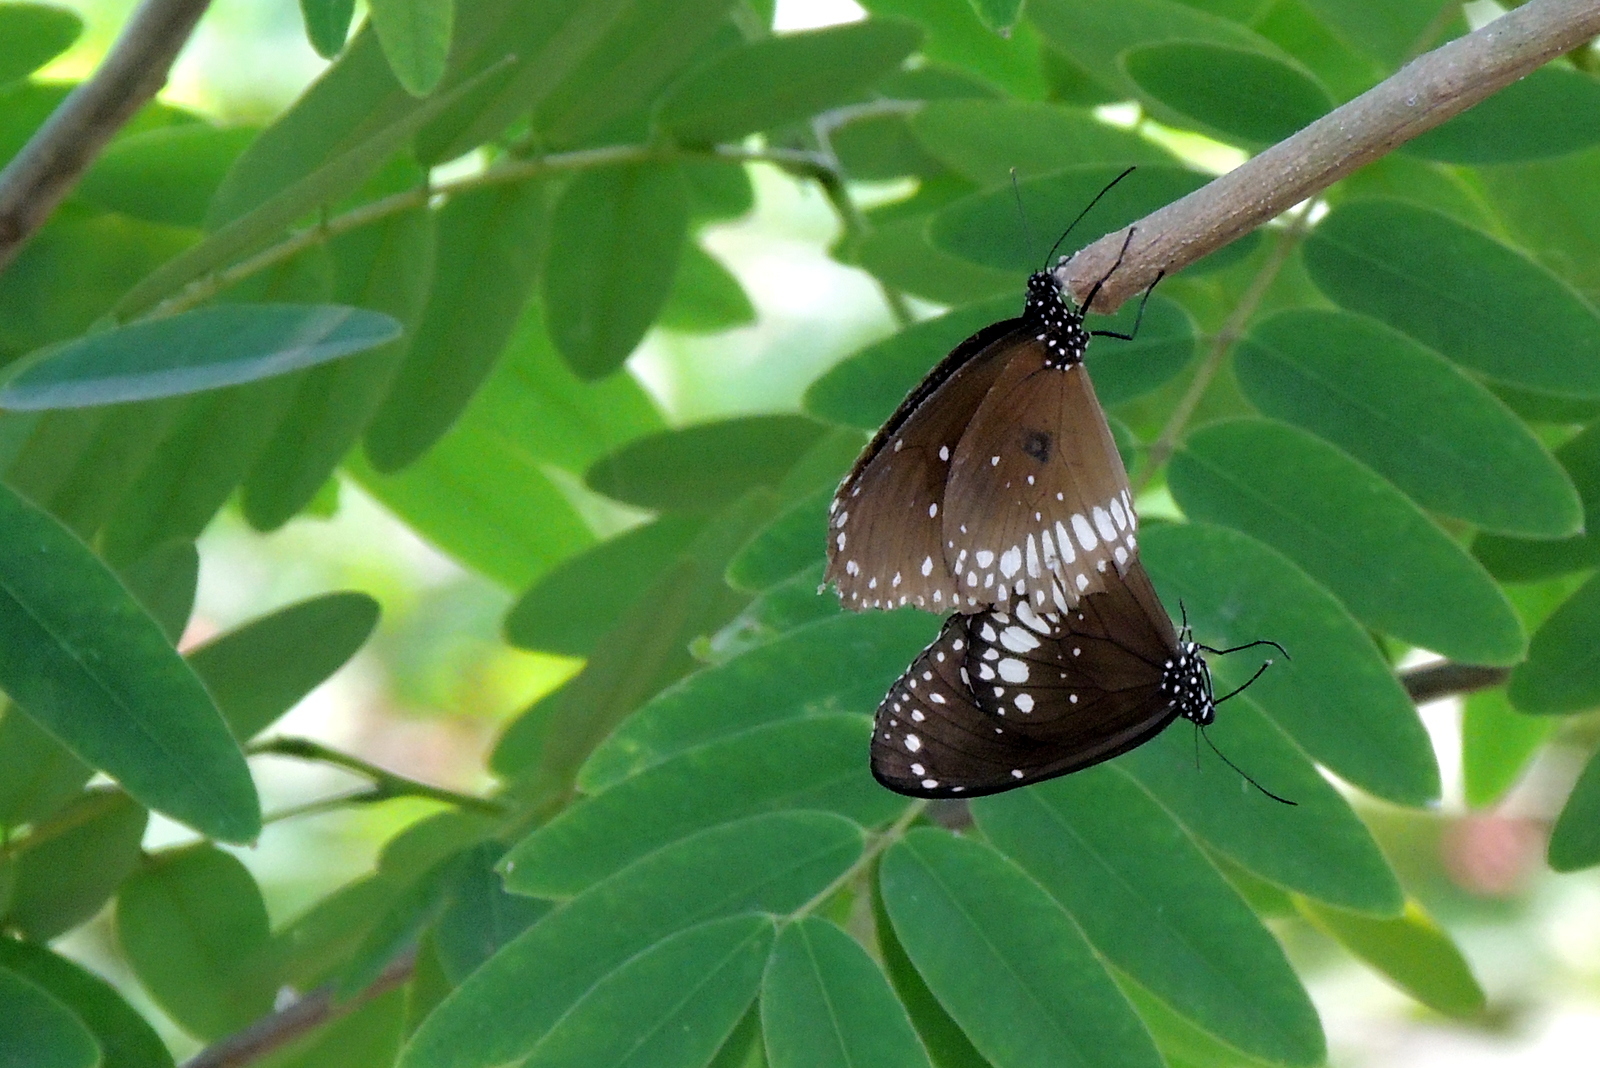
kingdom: Animalia
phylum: Arthropoda
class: Insecta
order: Lepidoptera
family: Nymphalidae
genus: Euploea
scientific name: Euploea core
